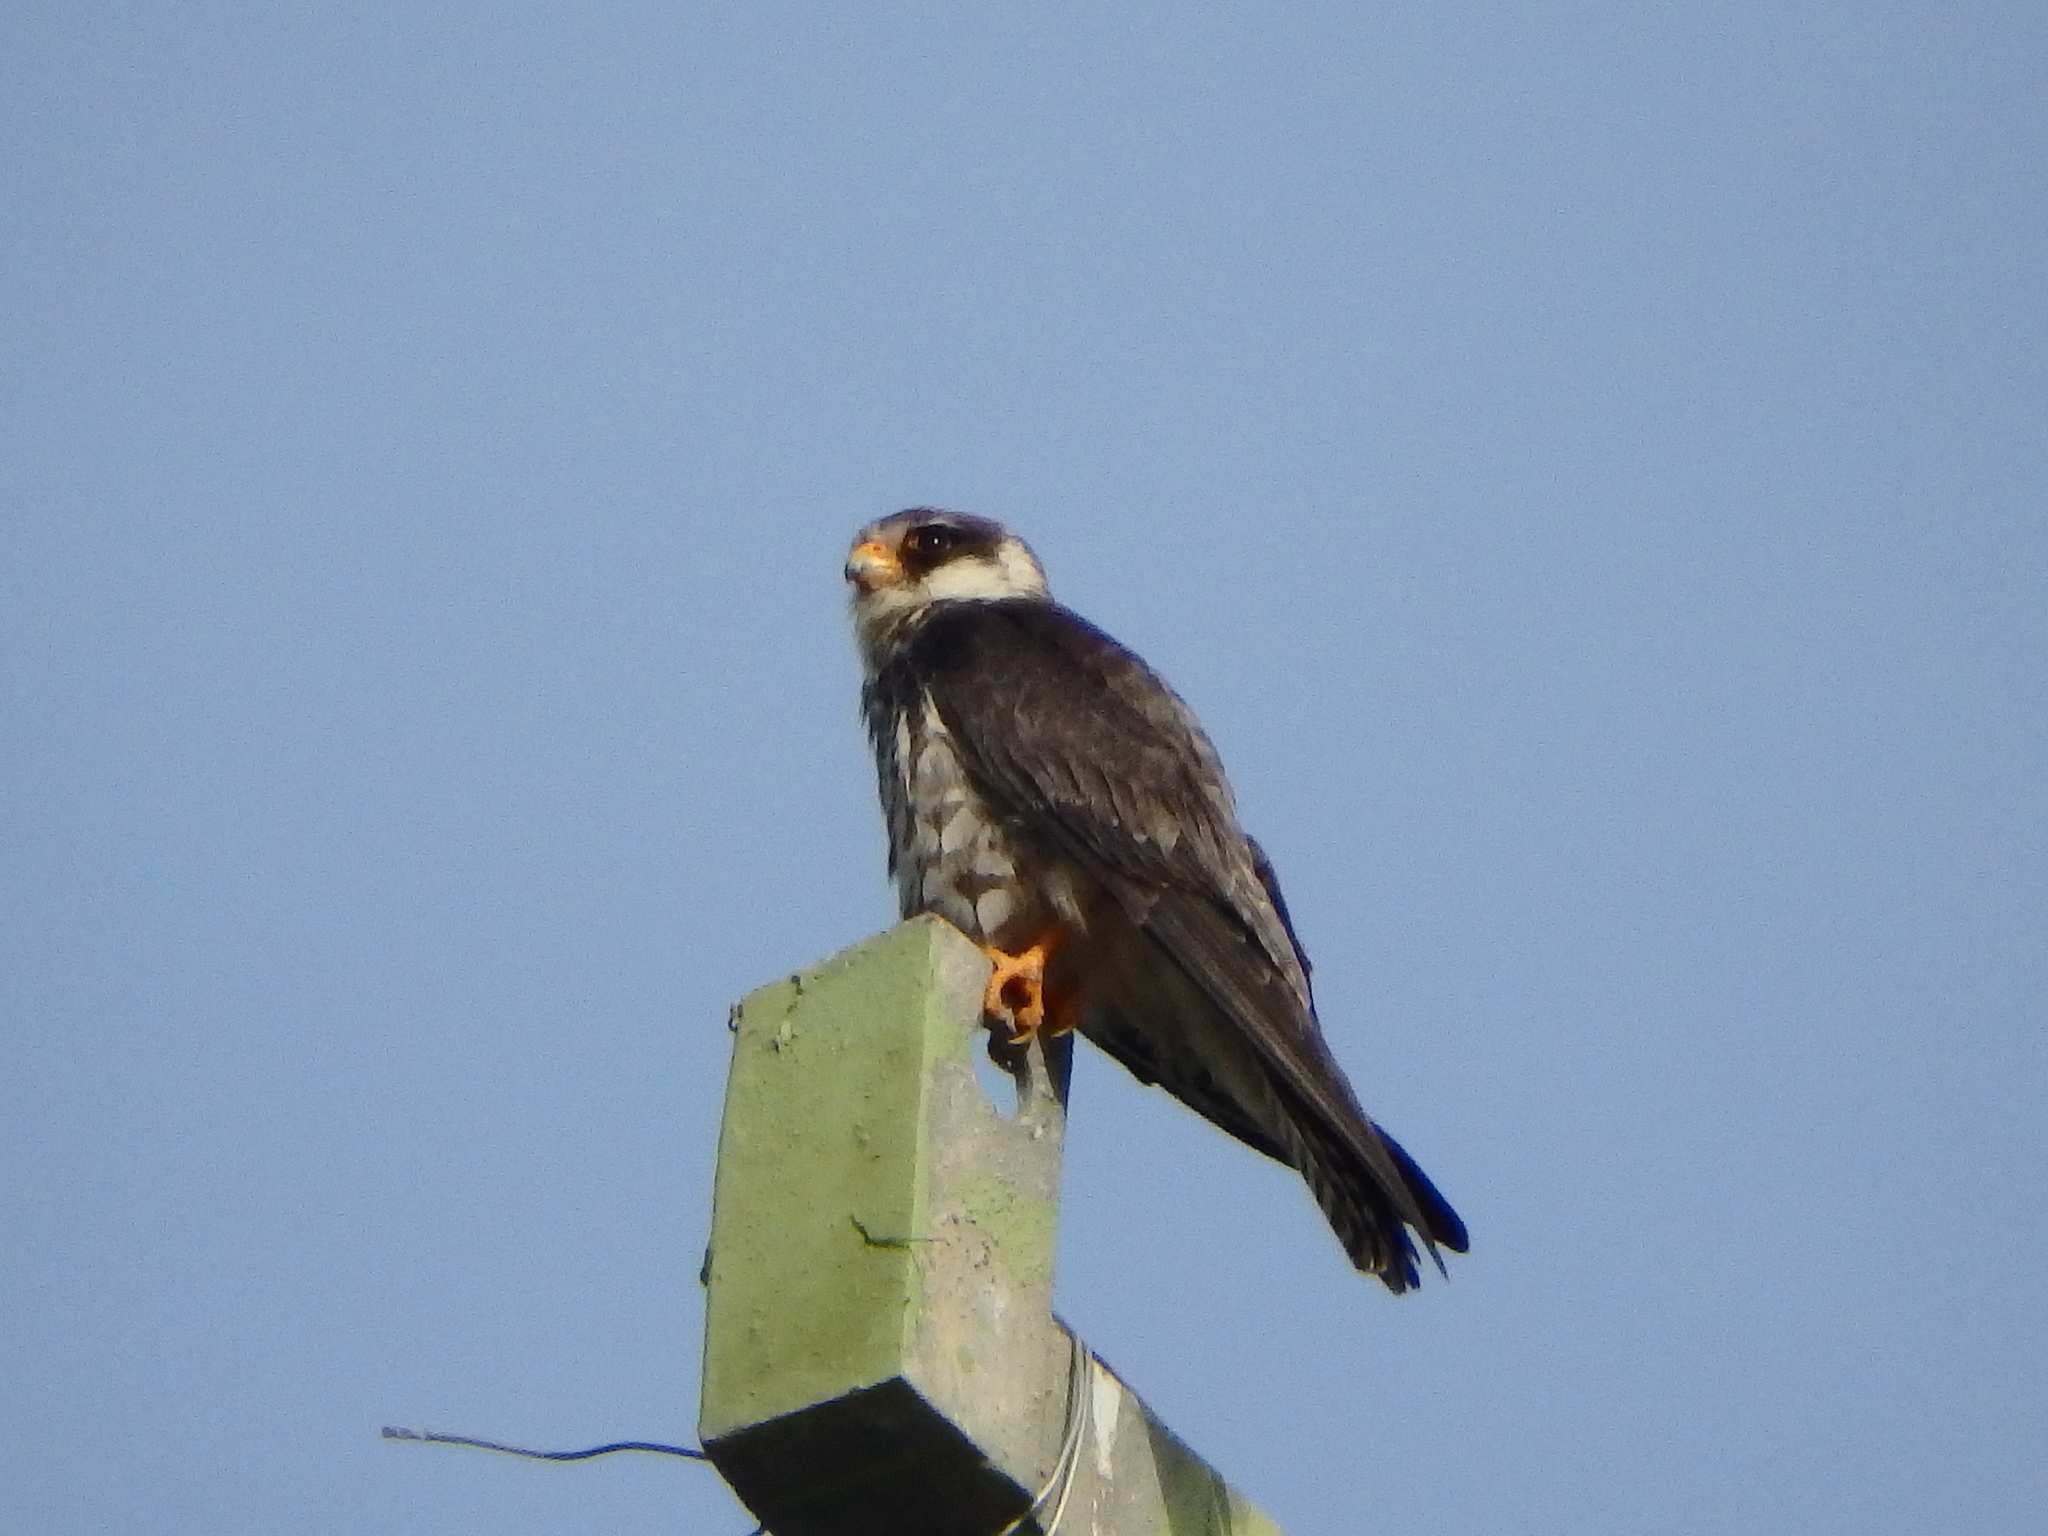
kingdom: Animalia
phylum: Chordata
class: Aves
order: Falconiformes
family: Falconidae
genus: Falco
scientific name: Falco amurensis
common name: Amur falcon
